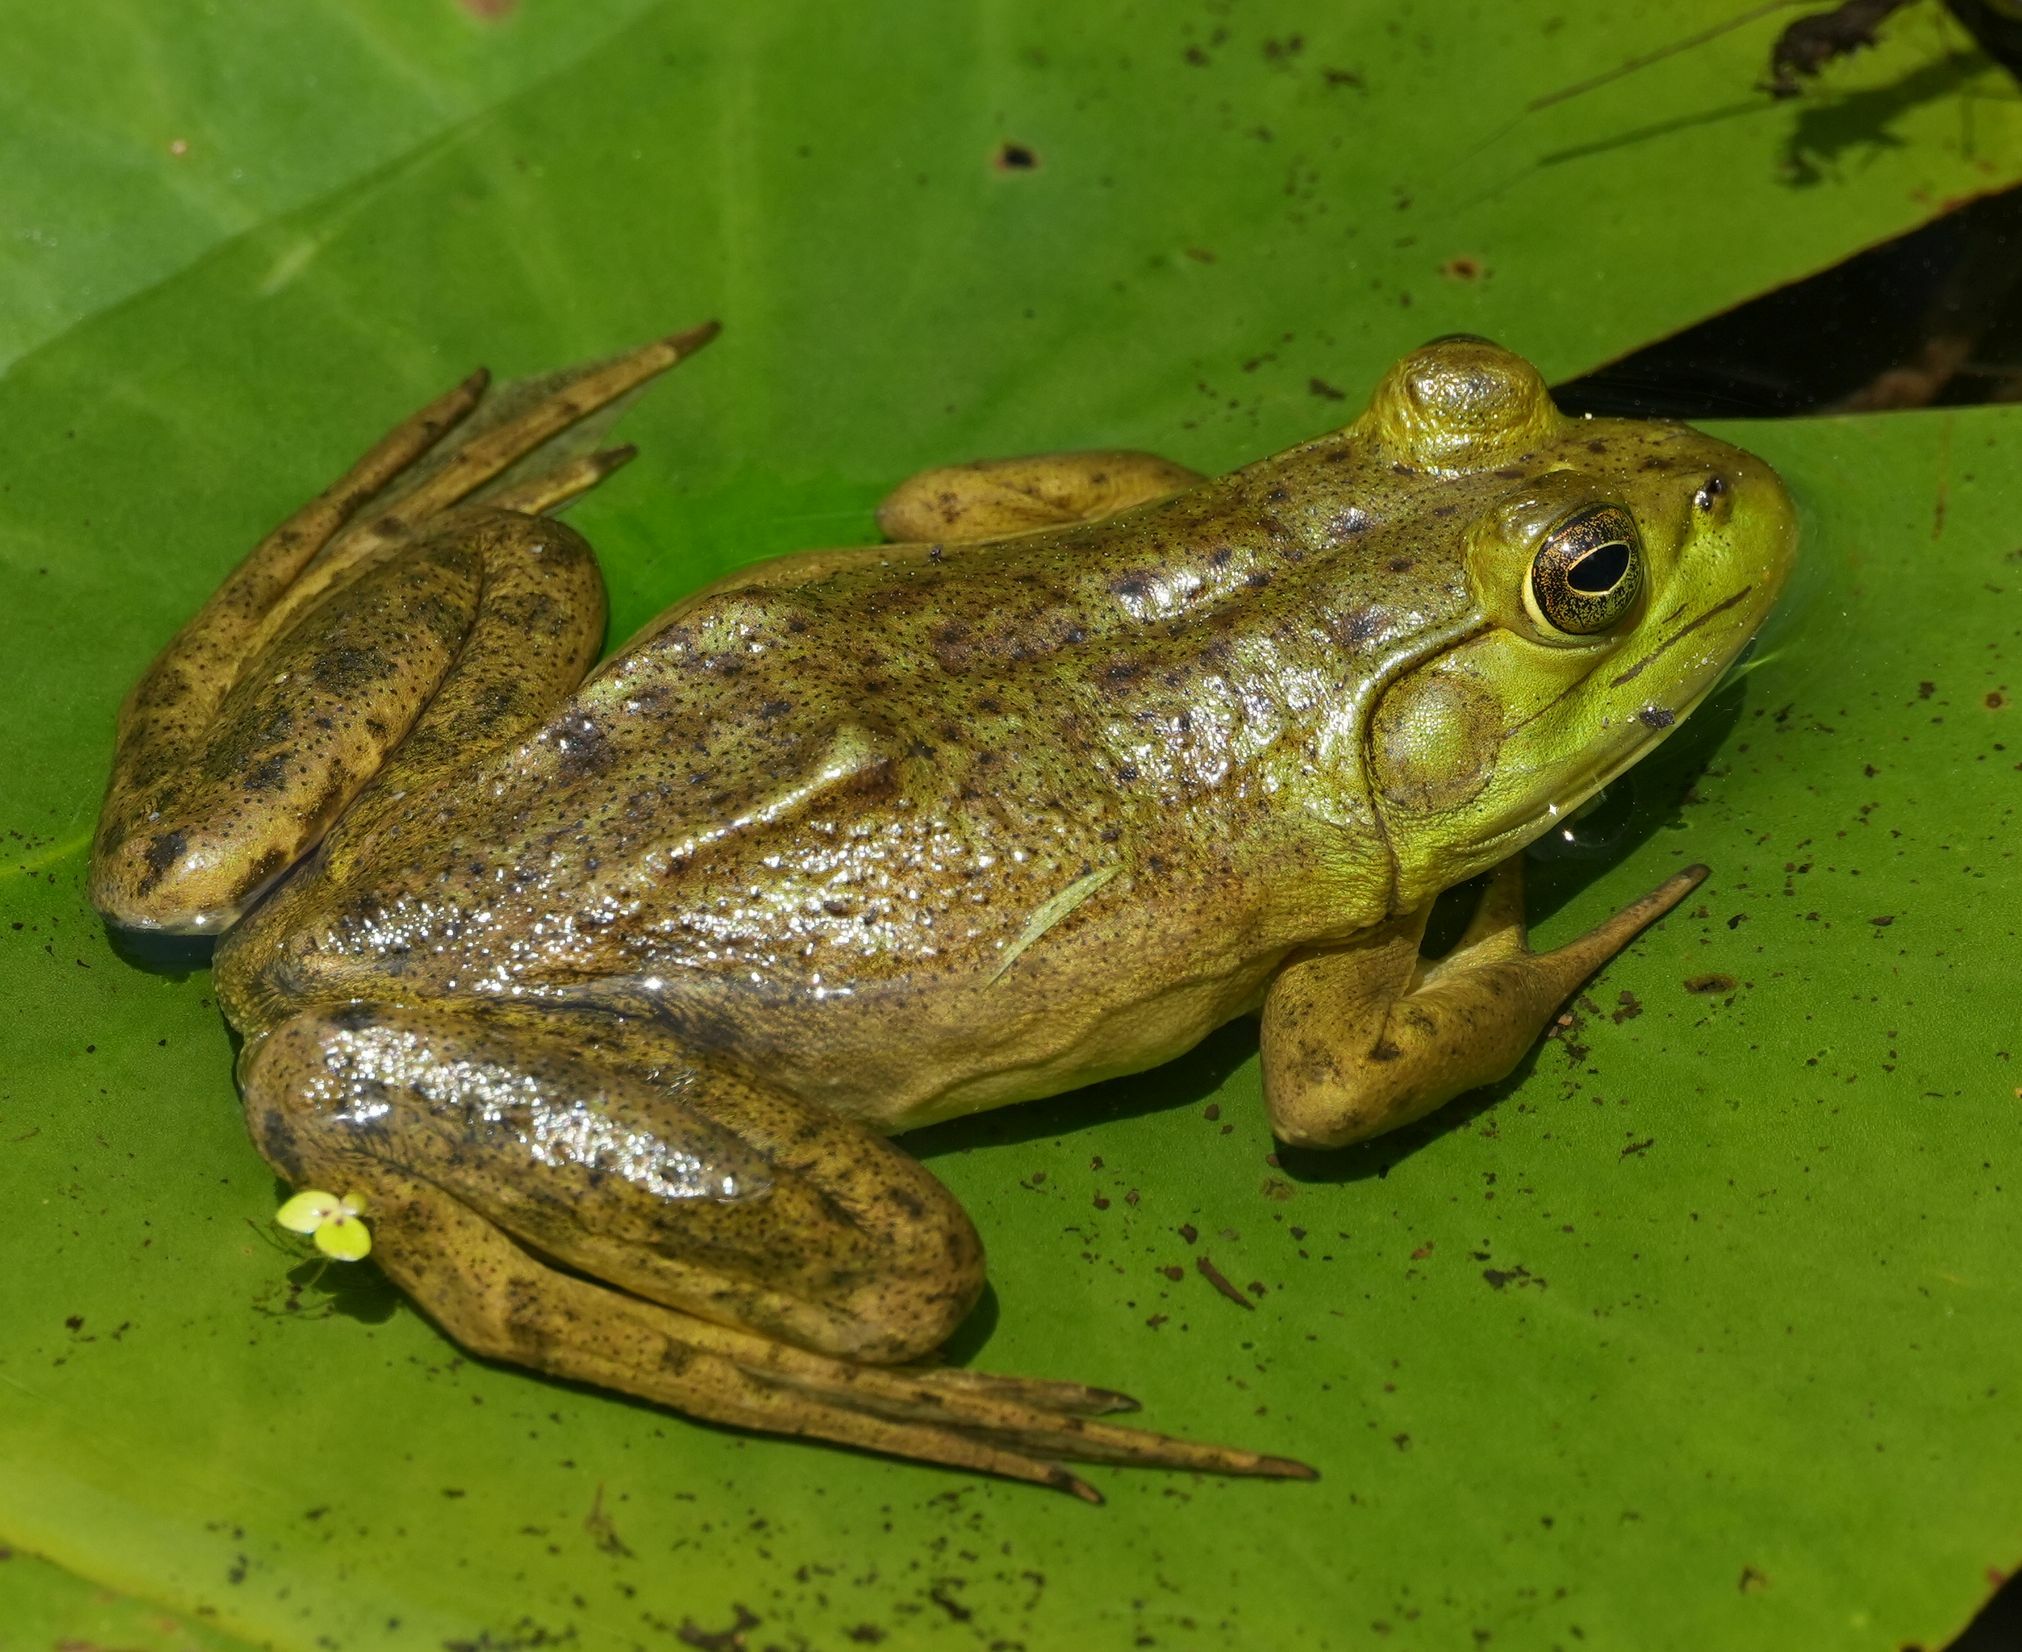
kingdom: Animalia
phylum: Chordata
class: Amphibia
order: Anura
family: Ranidae
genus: Lithobates
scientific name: Lithobates catesbeianus
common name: American bullfrog
